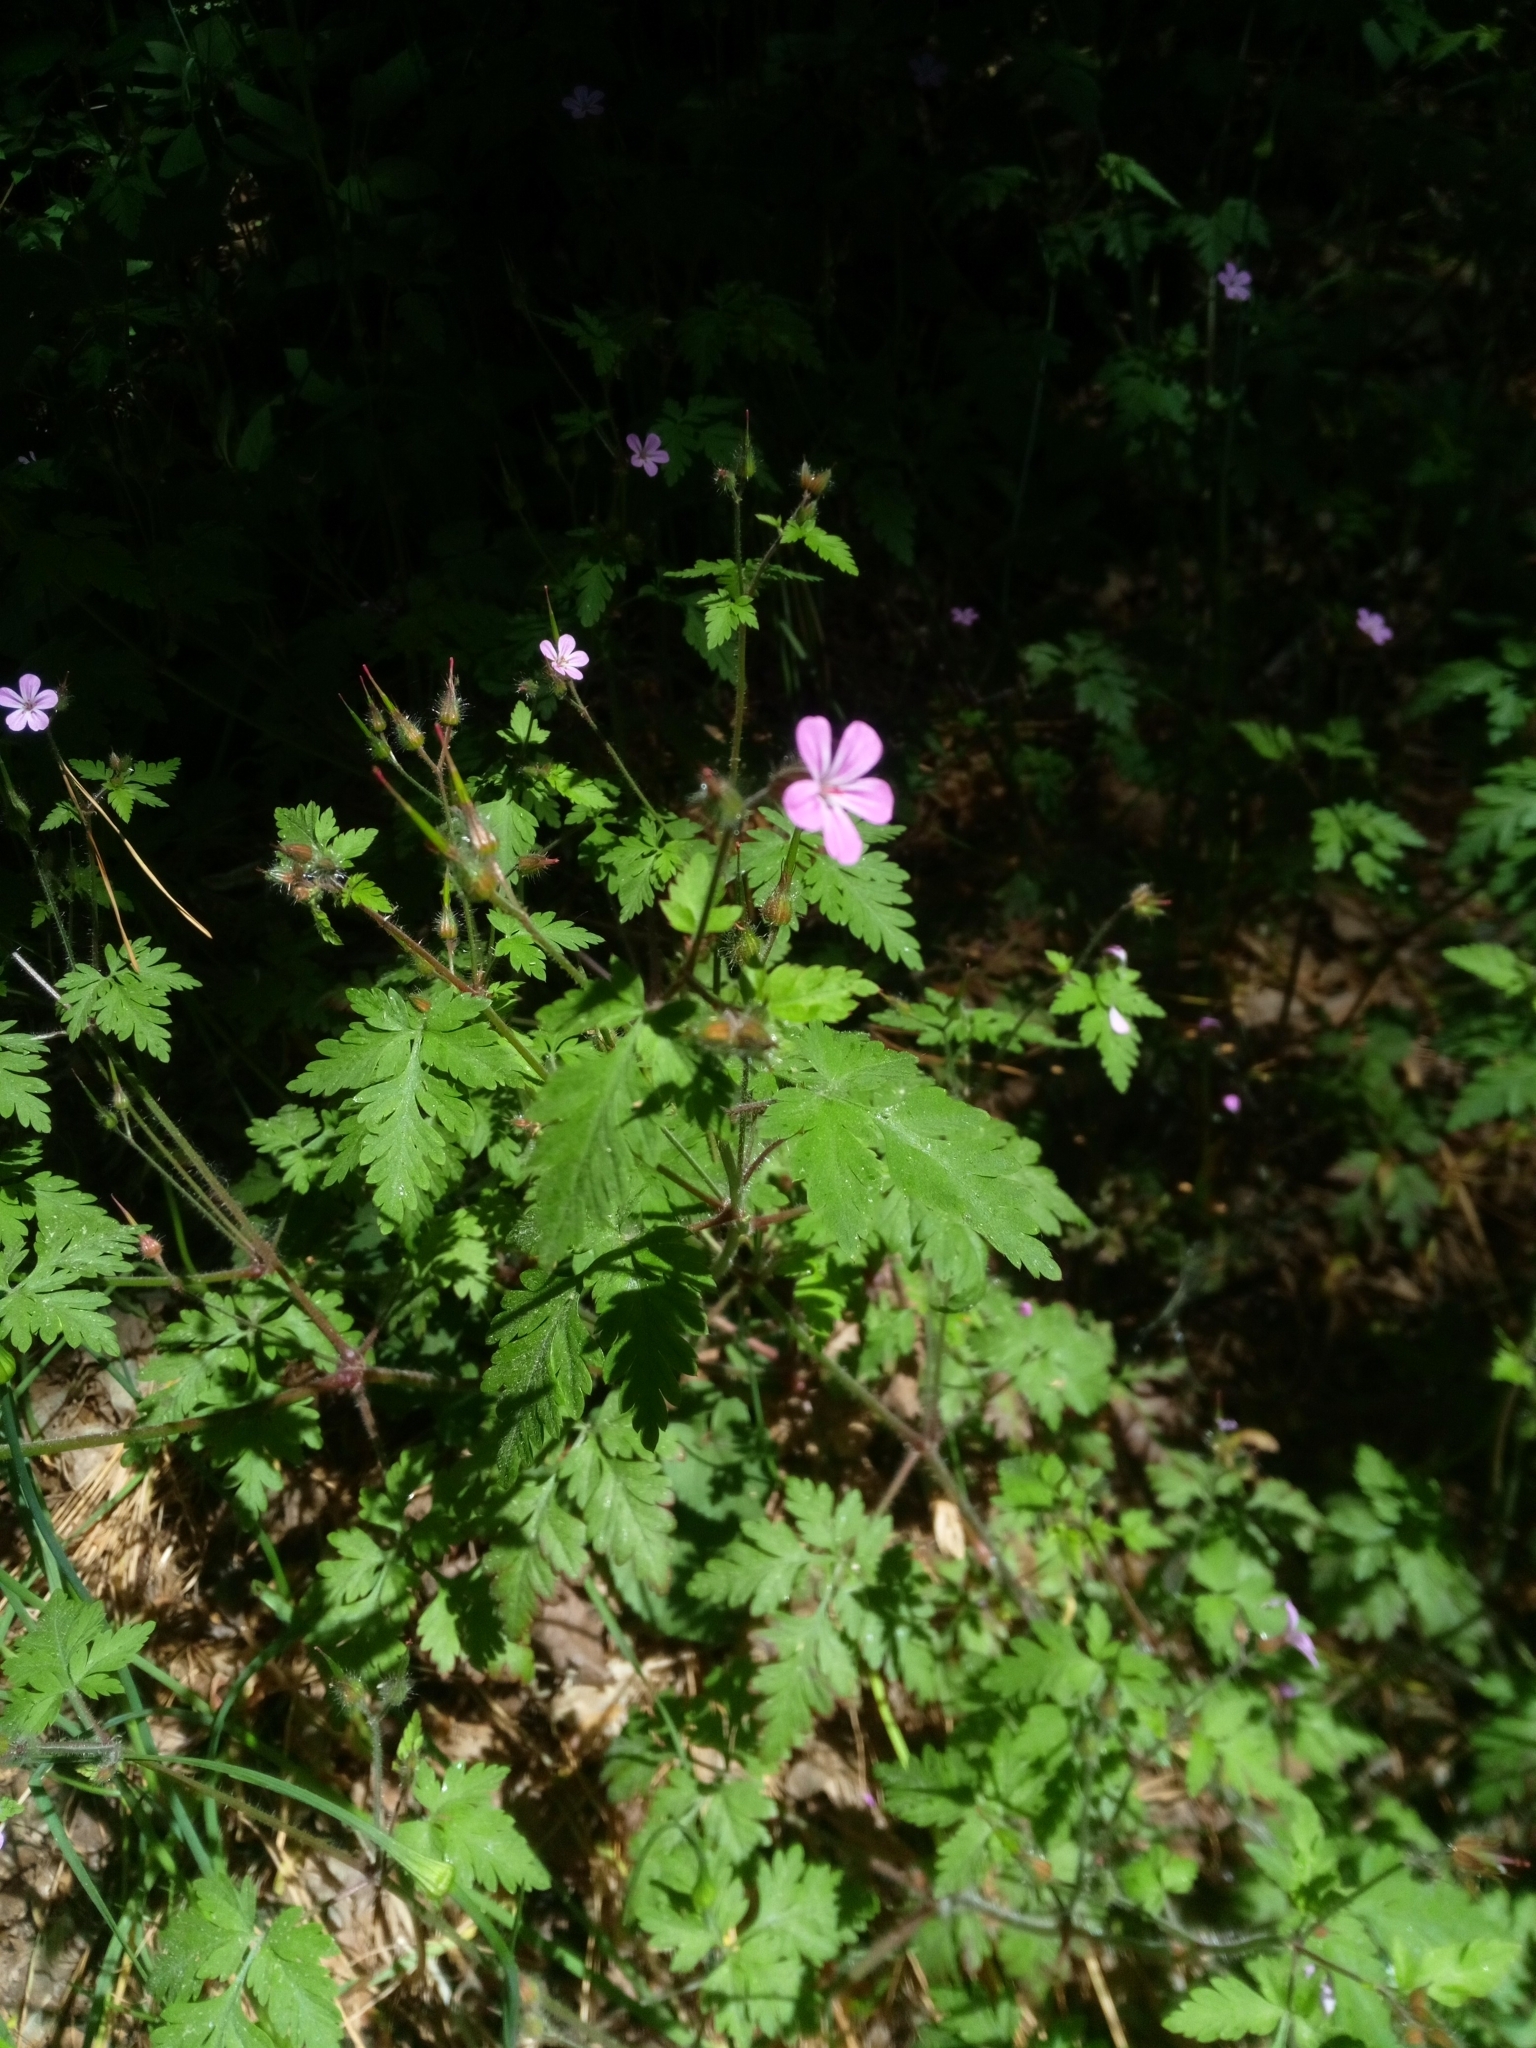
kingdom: Plantae
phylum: Tracheophyta
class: Magnoliopsida
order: Geraniales
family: Geraniaceae
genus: Geranium
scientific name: Geranium robertianum
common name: Herb-robert
